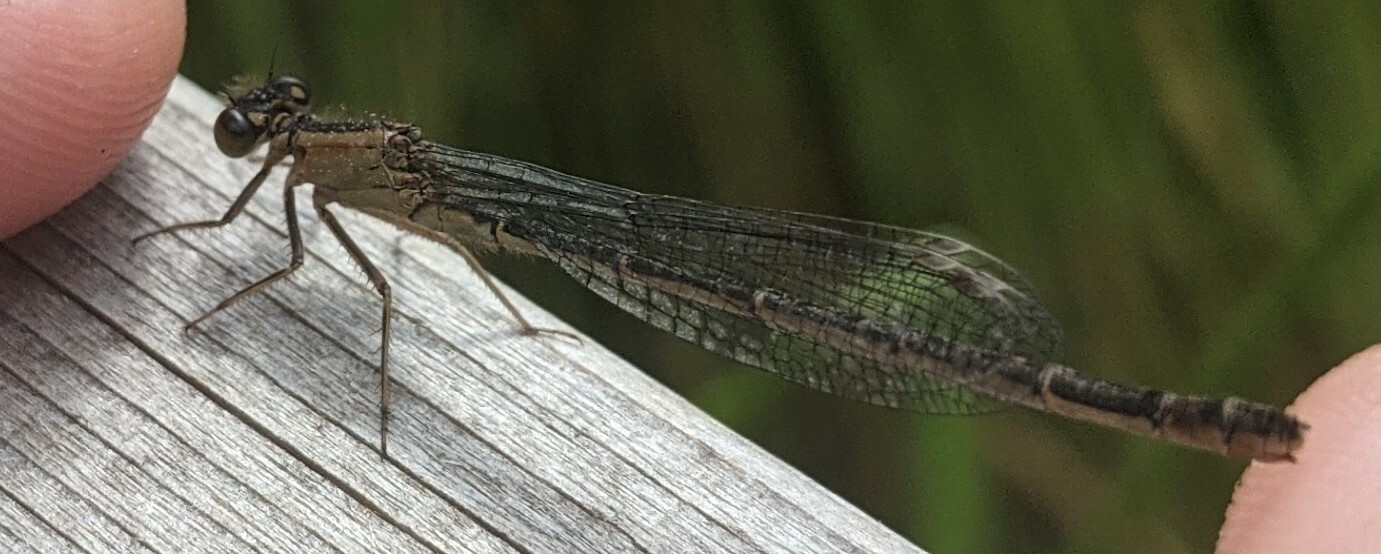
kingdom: Animalia
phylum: Arthropoda
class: Insecta
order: Odonata
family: Coenagrionidae
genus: Ischnura
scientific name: Ischnura elegans
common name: Blue-tailed damselfly
